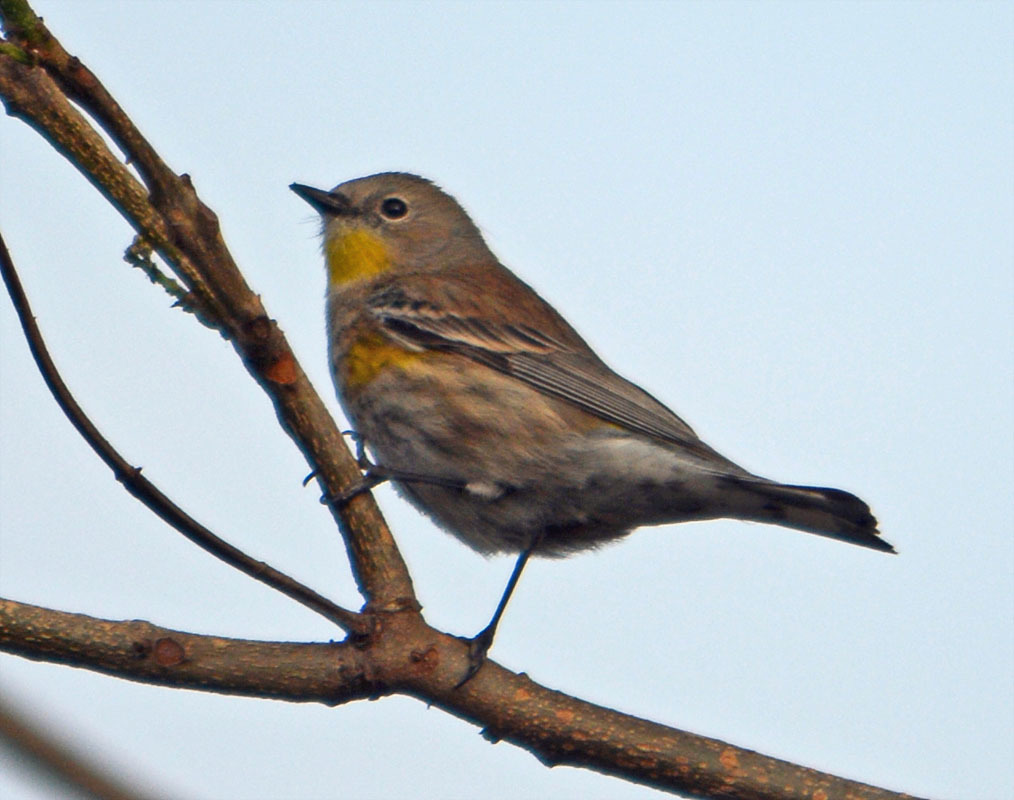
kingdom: Animalia
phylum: Chordata
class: Aves
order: Passeriformes
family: Parulidae
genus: Setophaga
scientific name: Setophaga coronata
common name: Myrtle warbler
